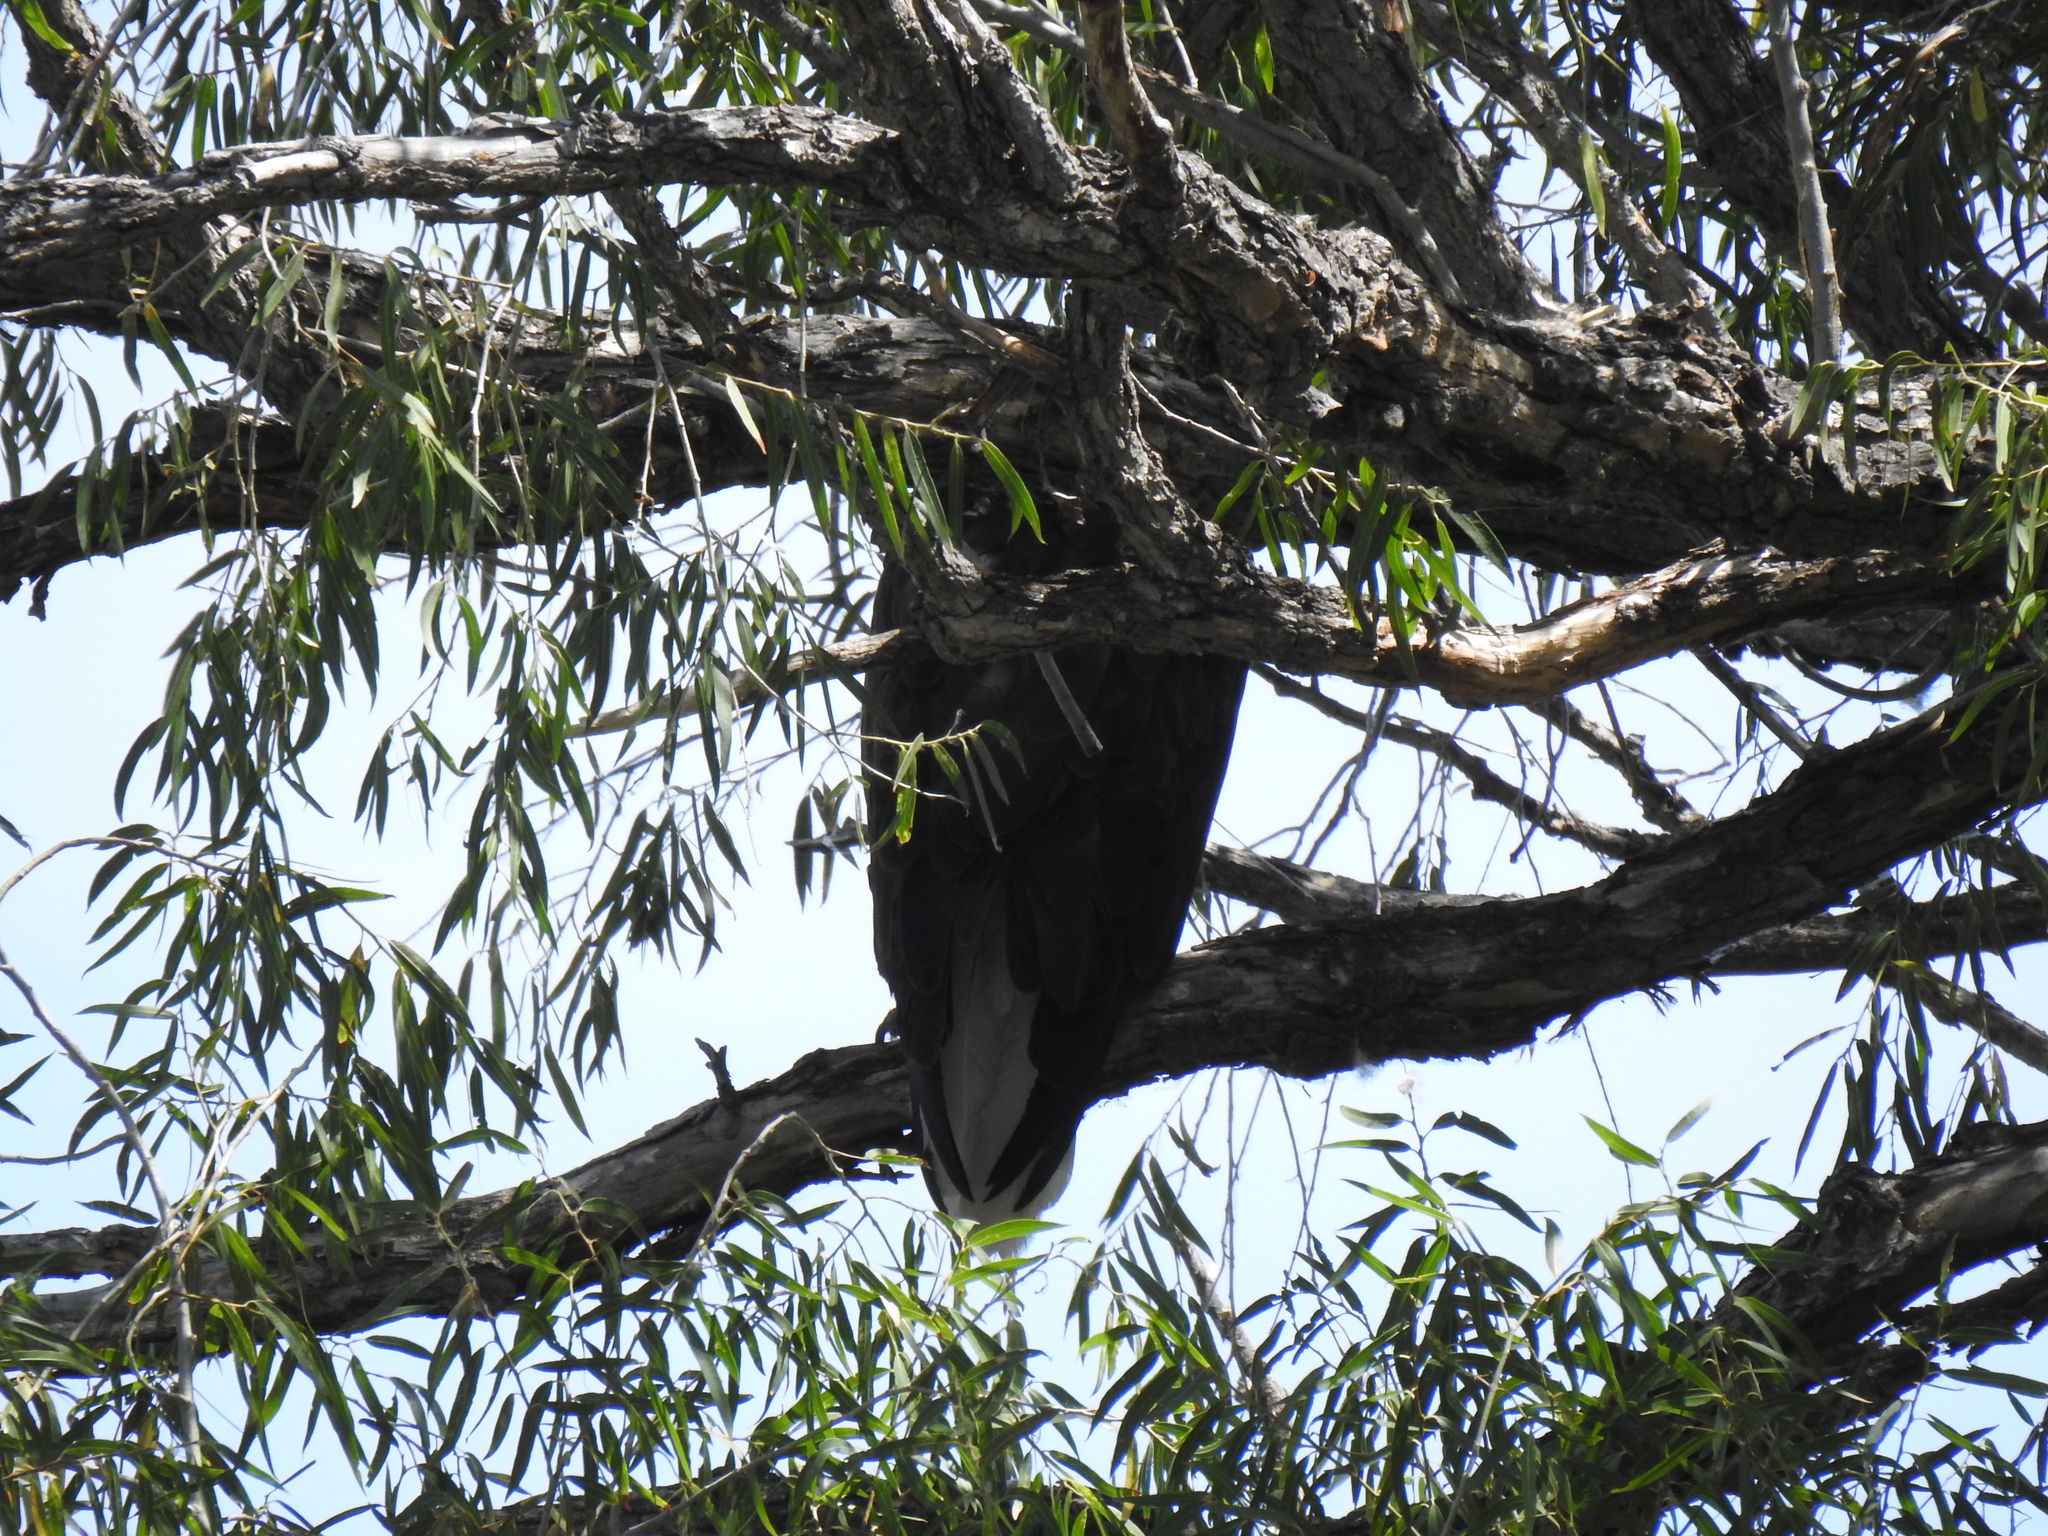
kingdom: Animalia
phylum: Chordata
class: Aves
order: Accipitriformes
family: Accipitridae
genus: Haliaeetus
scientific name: Haliaeetus leucocephalus
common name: Bald eagle
